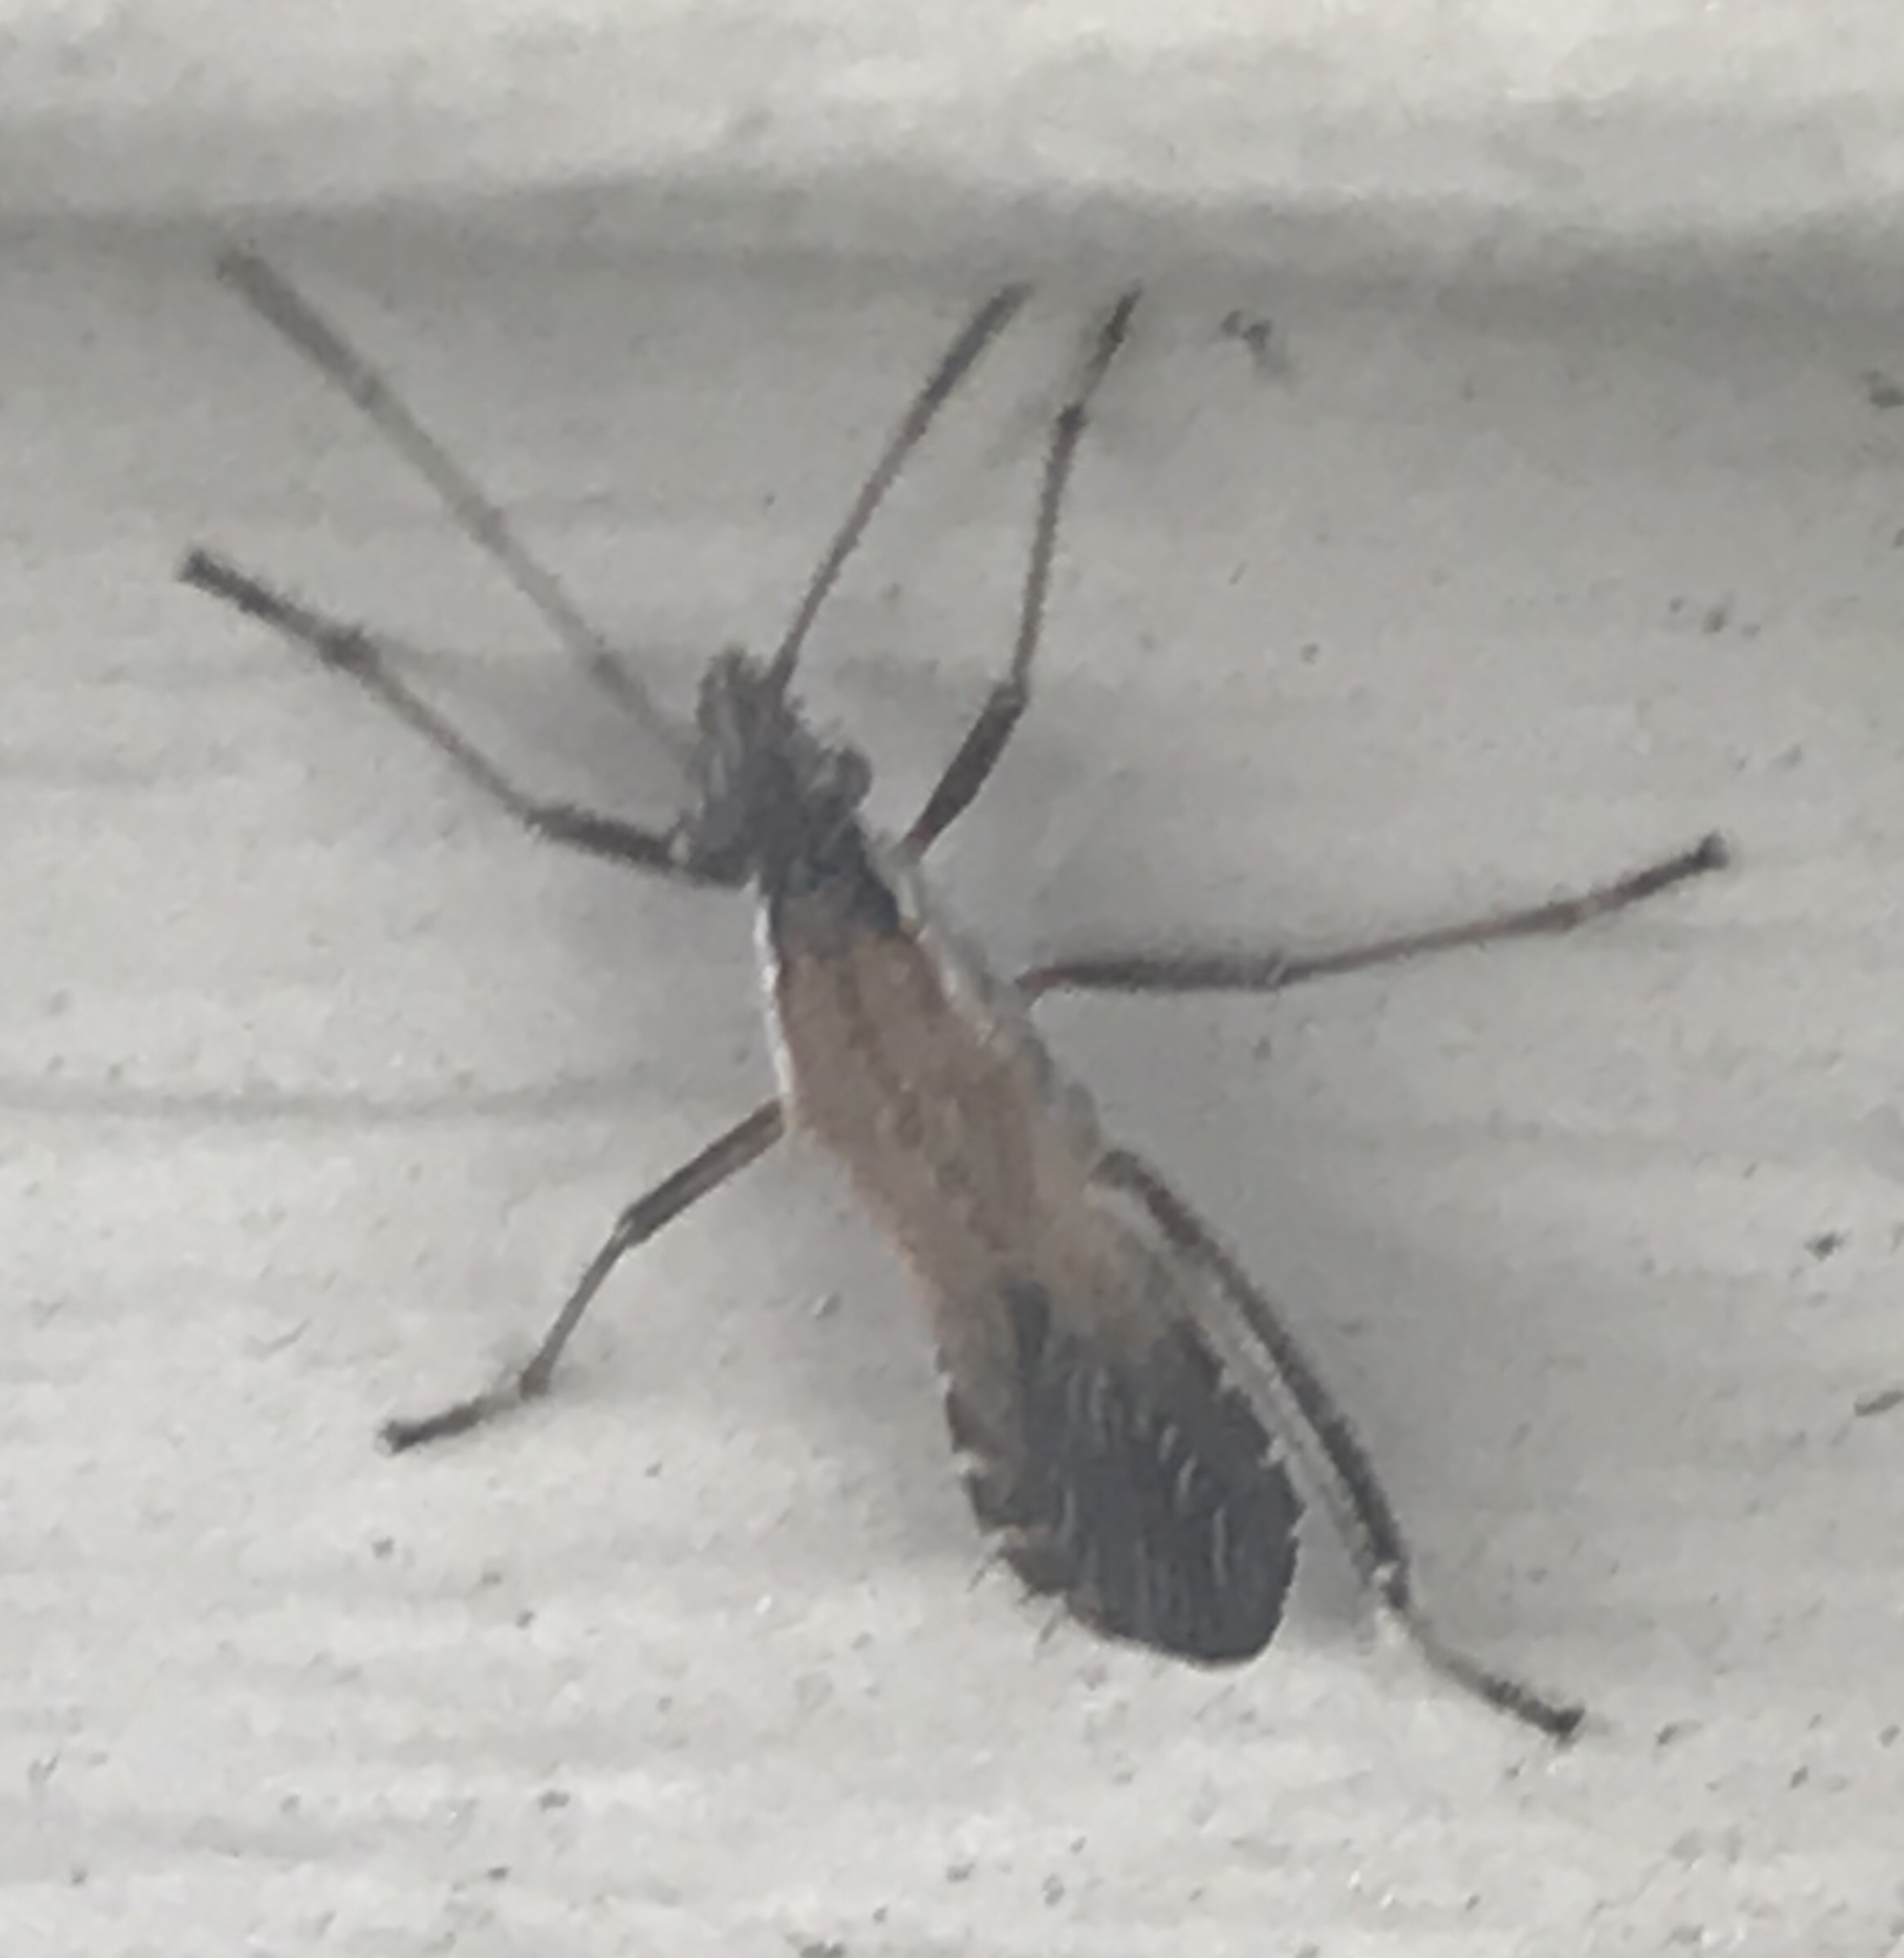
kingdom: Animalia
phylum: Arthropoda
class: Insecta
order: Hemiptera
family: Alydidae
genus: Alydus
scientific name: Alydus pilosulus
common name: Broad-headed bug
